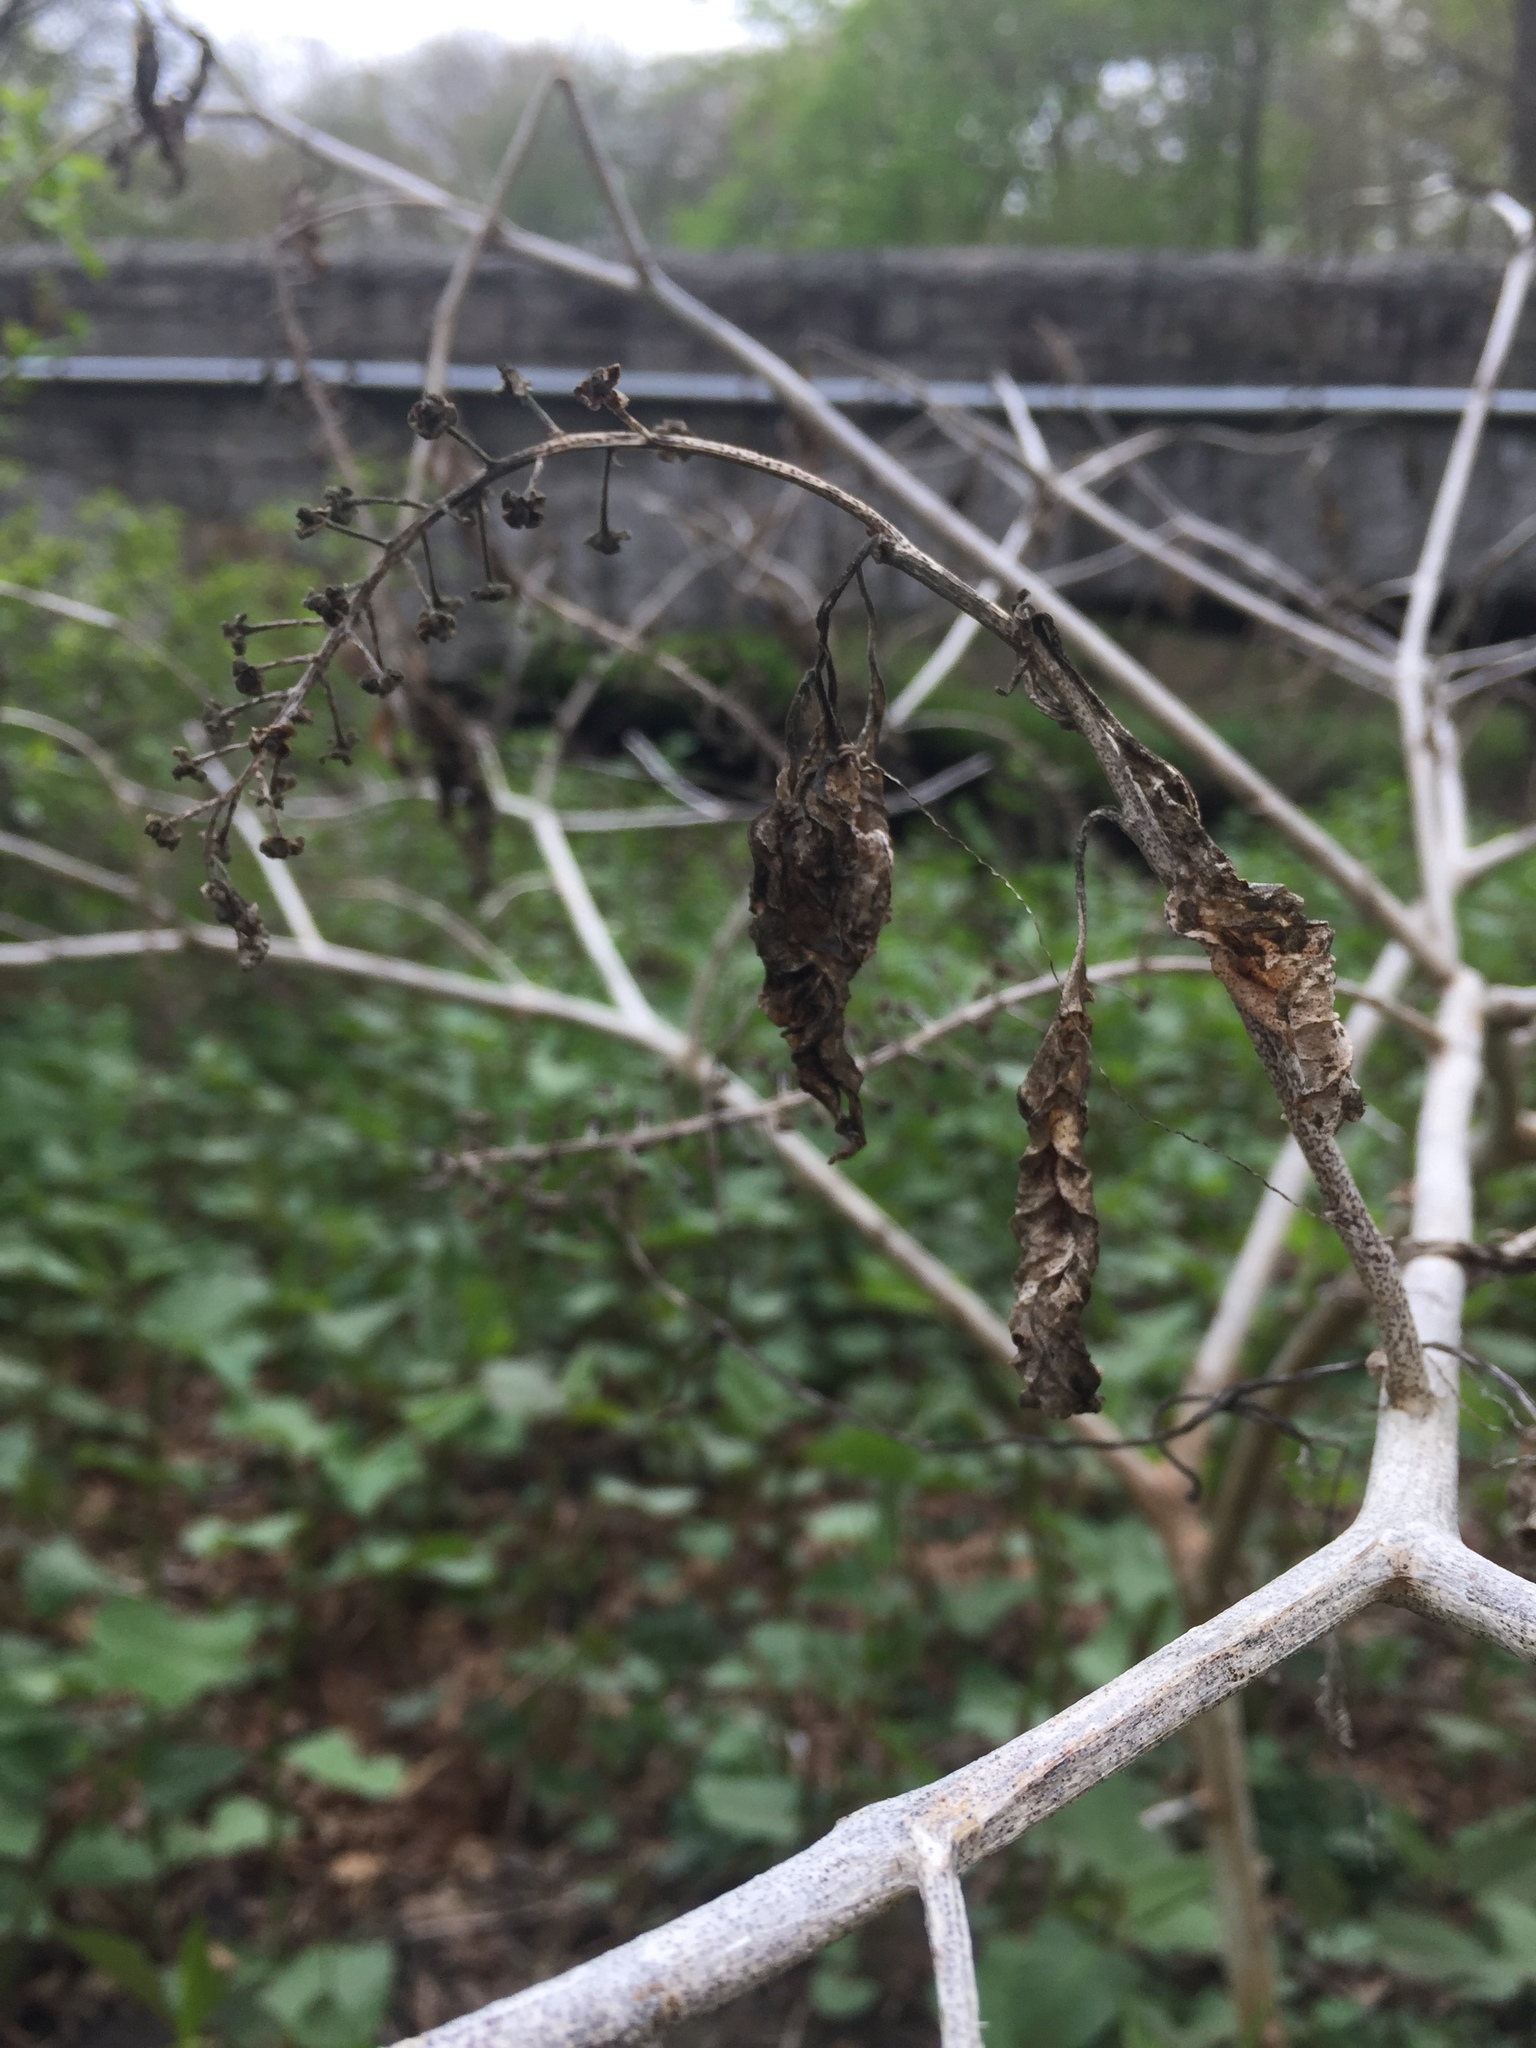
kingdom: Plantae
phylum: Tracheophyta
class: Magnoliopsida
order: Caryophyllales
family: Phytolaccaceae
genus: Phytolacca
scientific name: Phytolacca americana
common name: American pokeweed
